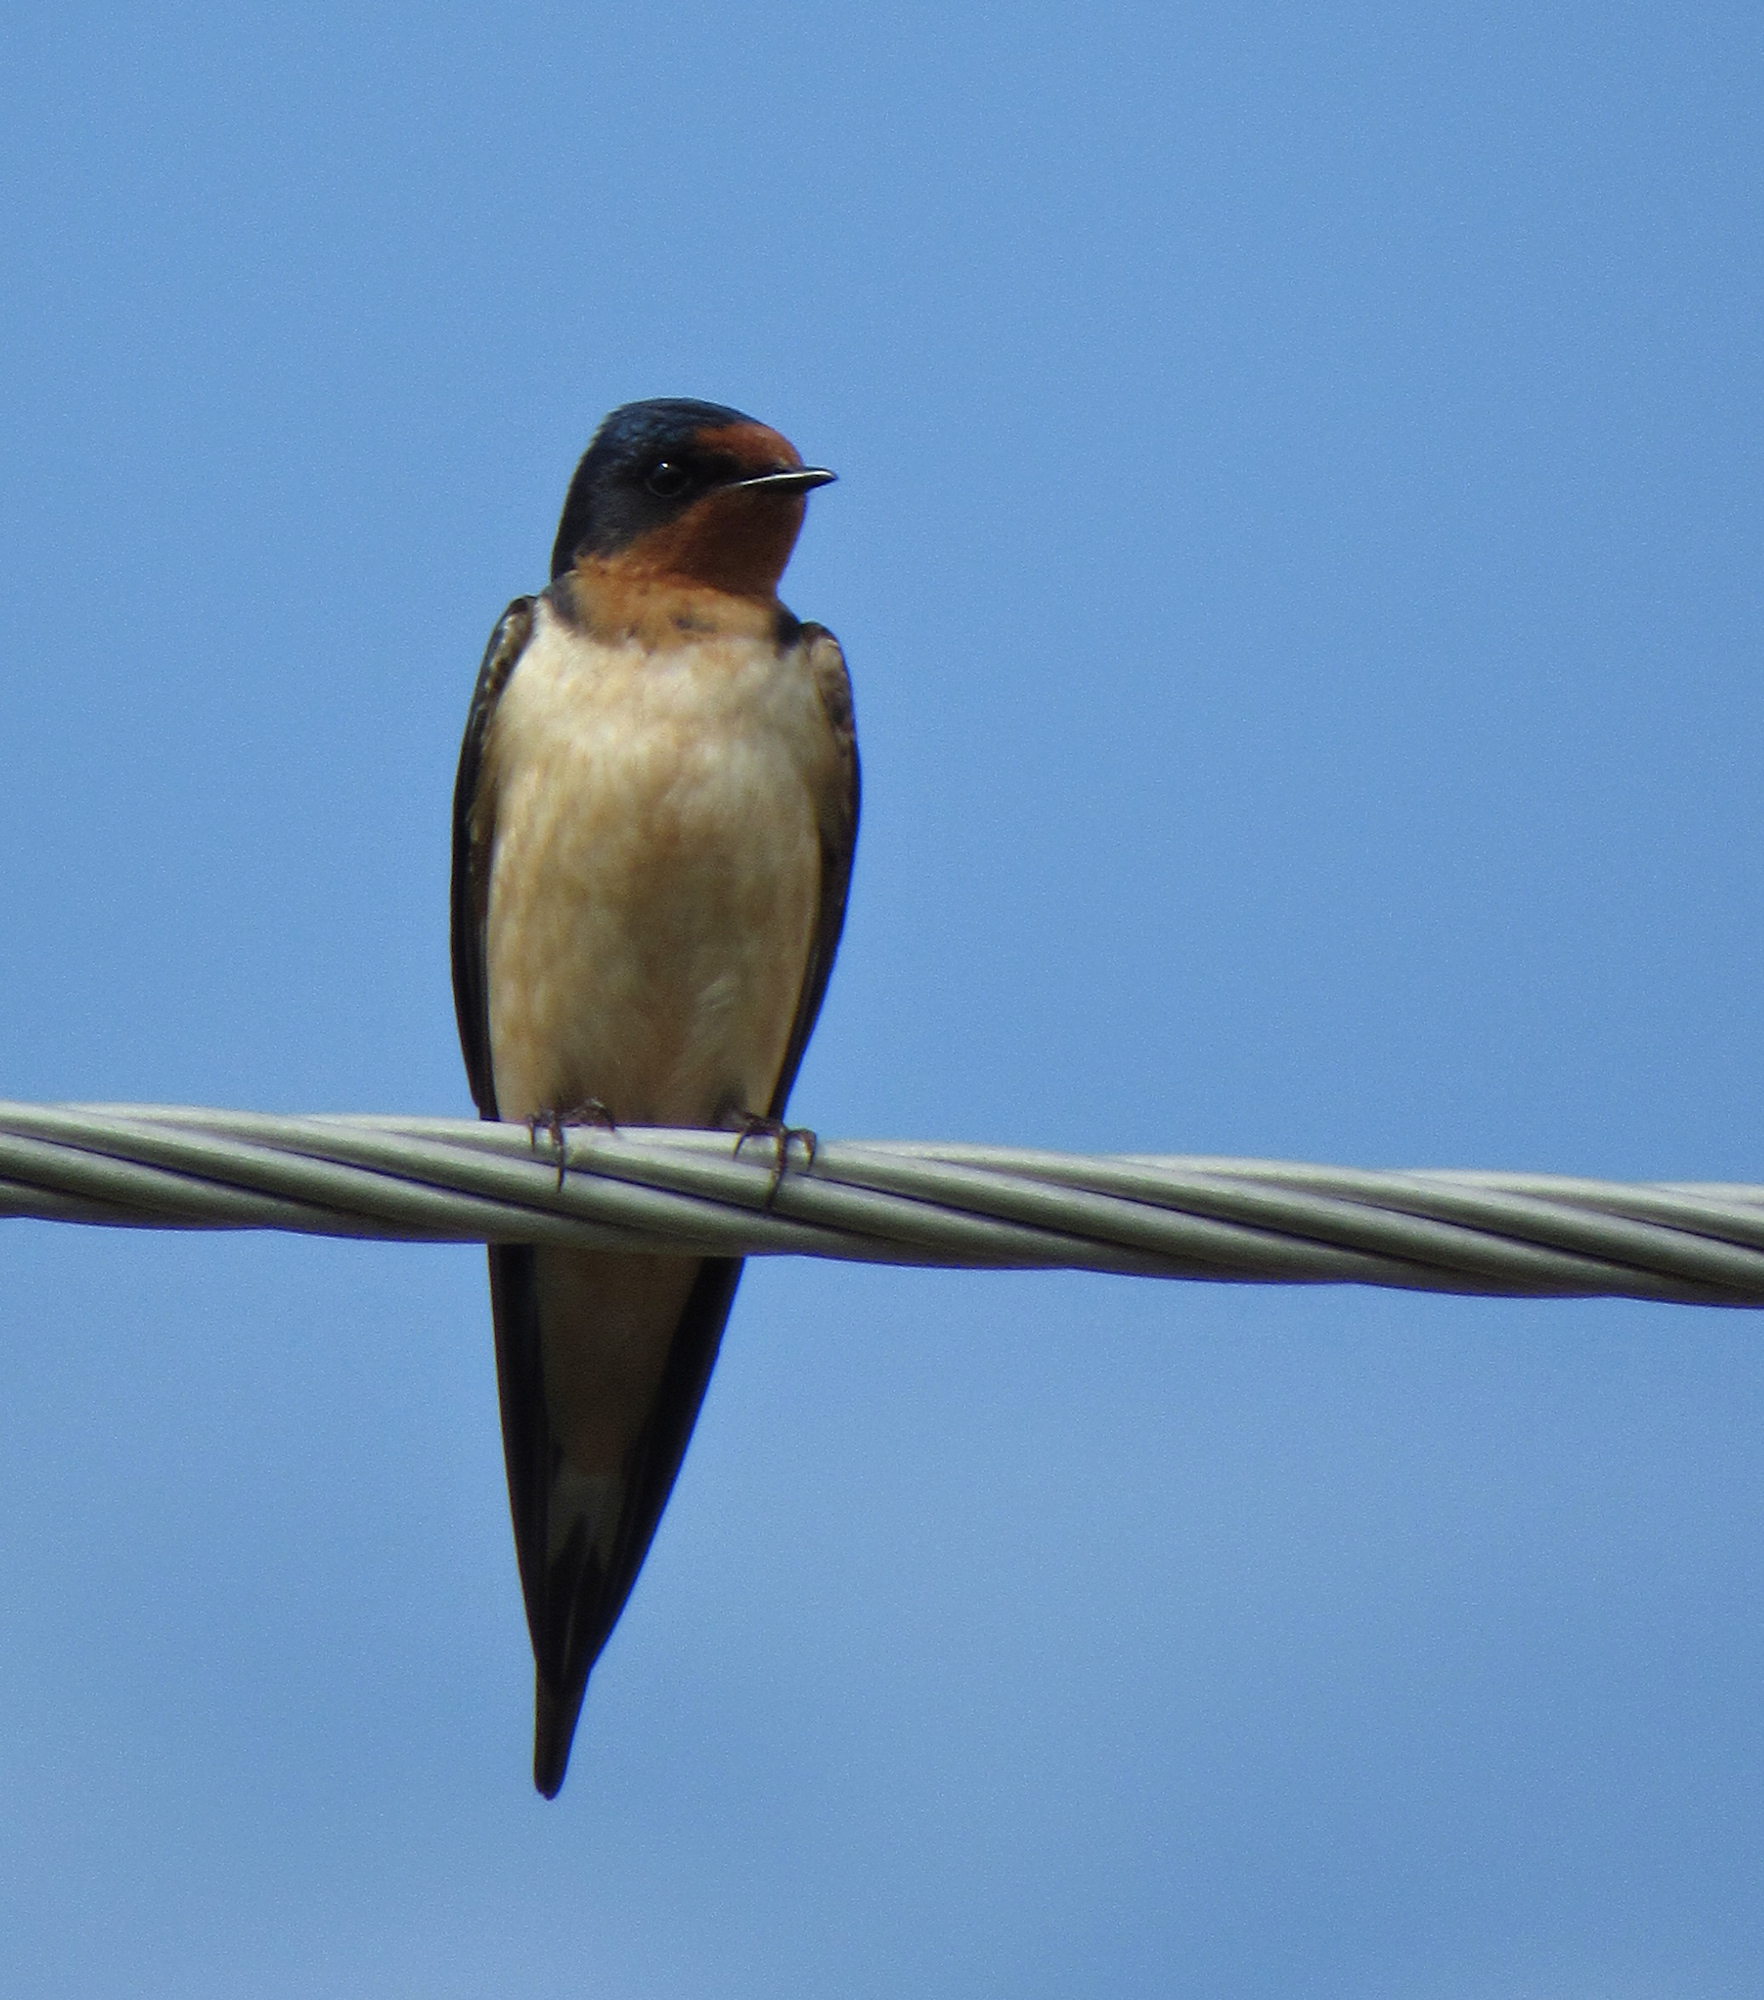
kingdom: Animalia
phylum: Chordata
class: Aves
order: Passeriformes
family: Hirundinidae
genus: Hirundo
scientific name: Hirundo rustica
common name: Barn swallow
